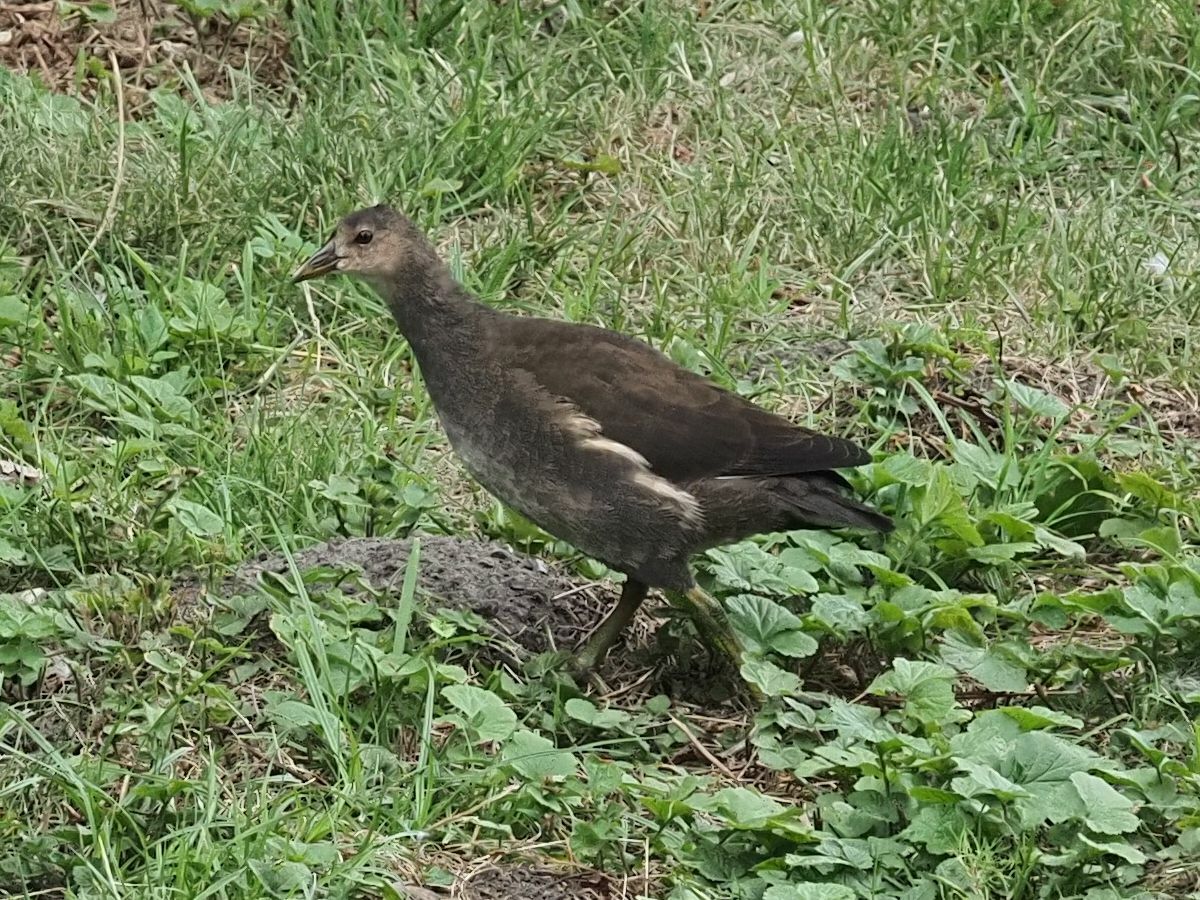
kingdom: Animalia
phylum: Chordata
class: Aves
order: Gruiformes
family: Rallidae
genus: Gallinula
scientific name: Gallinula chloropus
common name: Common moorhen
